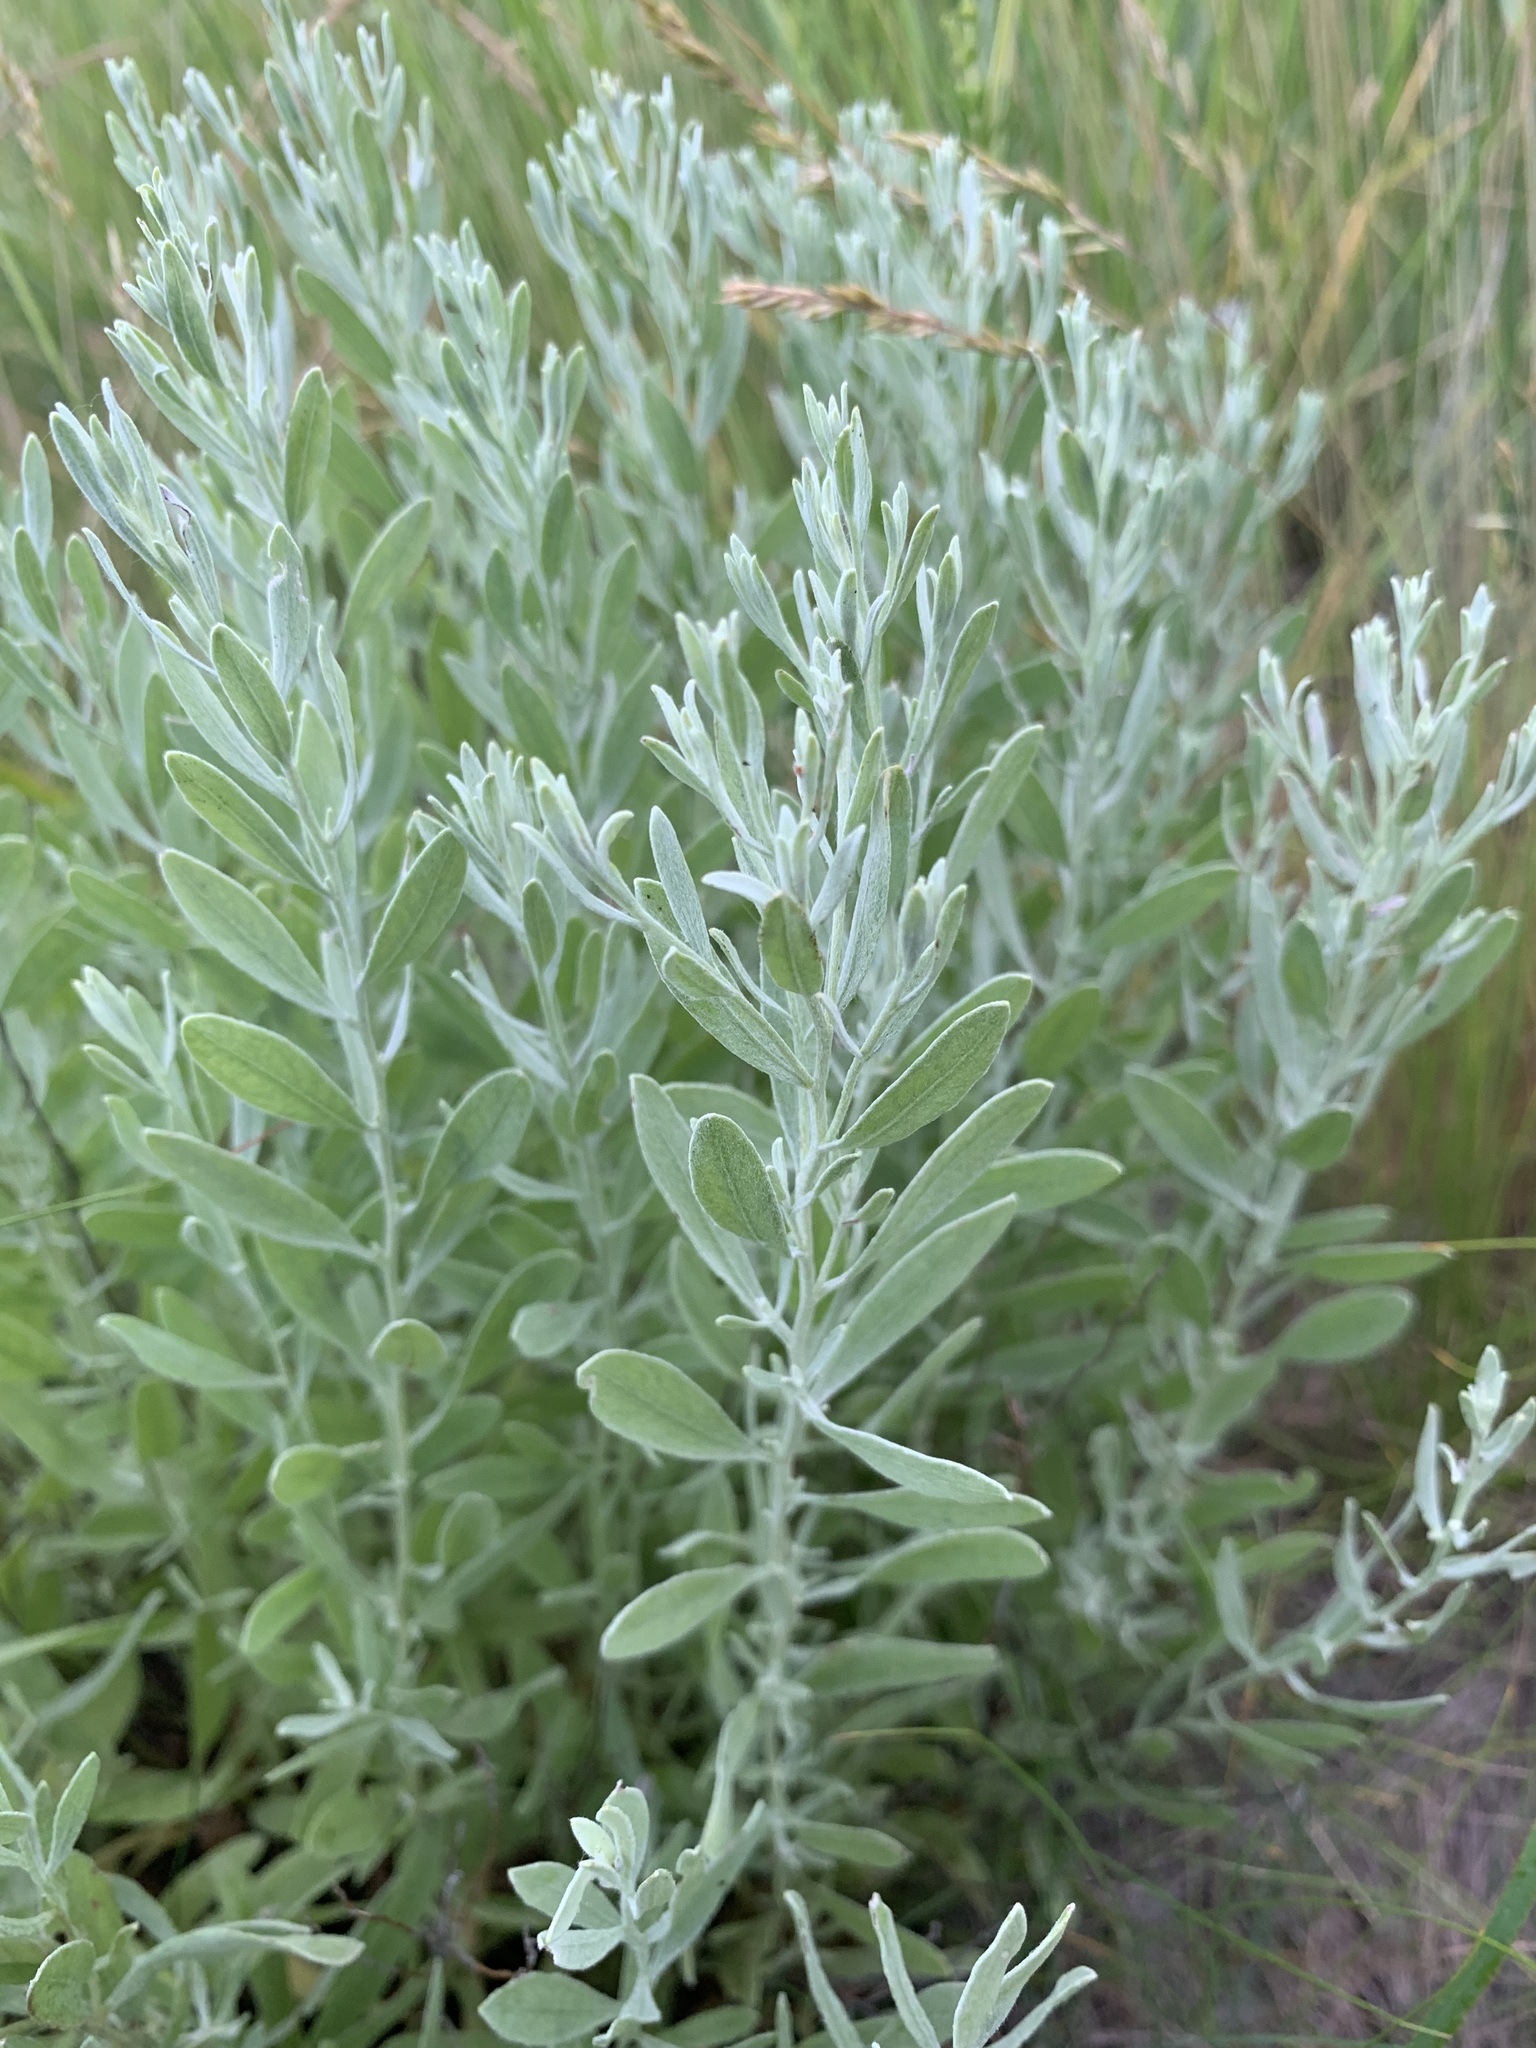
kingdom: Plantae
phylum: Tracheophyta
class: Magnoliopsida
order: Asterales
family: Asteraceae
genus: Galatella
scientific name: Galatella villosa
